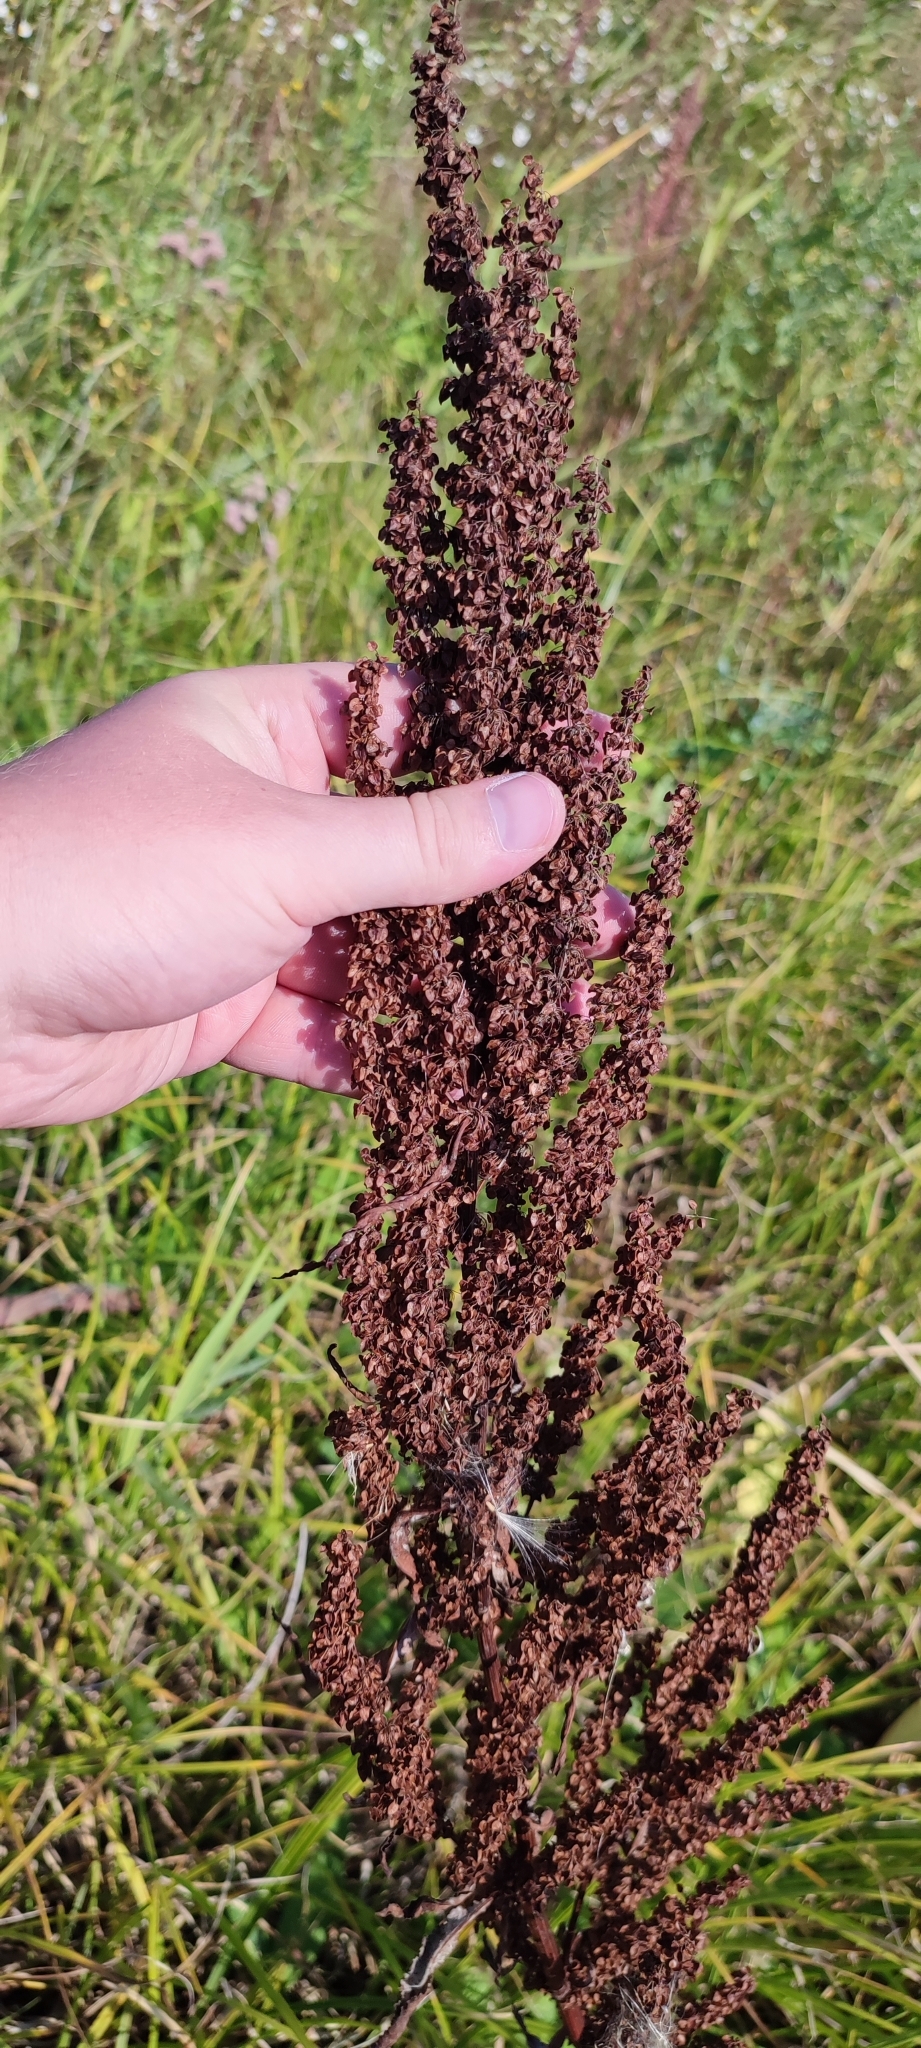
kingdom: Plantae
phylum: Tracheophyta
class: Magnoliopsida
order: Caryophyllales
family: Polygonaceae
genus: Rumex
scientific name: Rumex aquaticus
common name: Scottish dock
